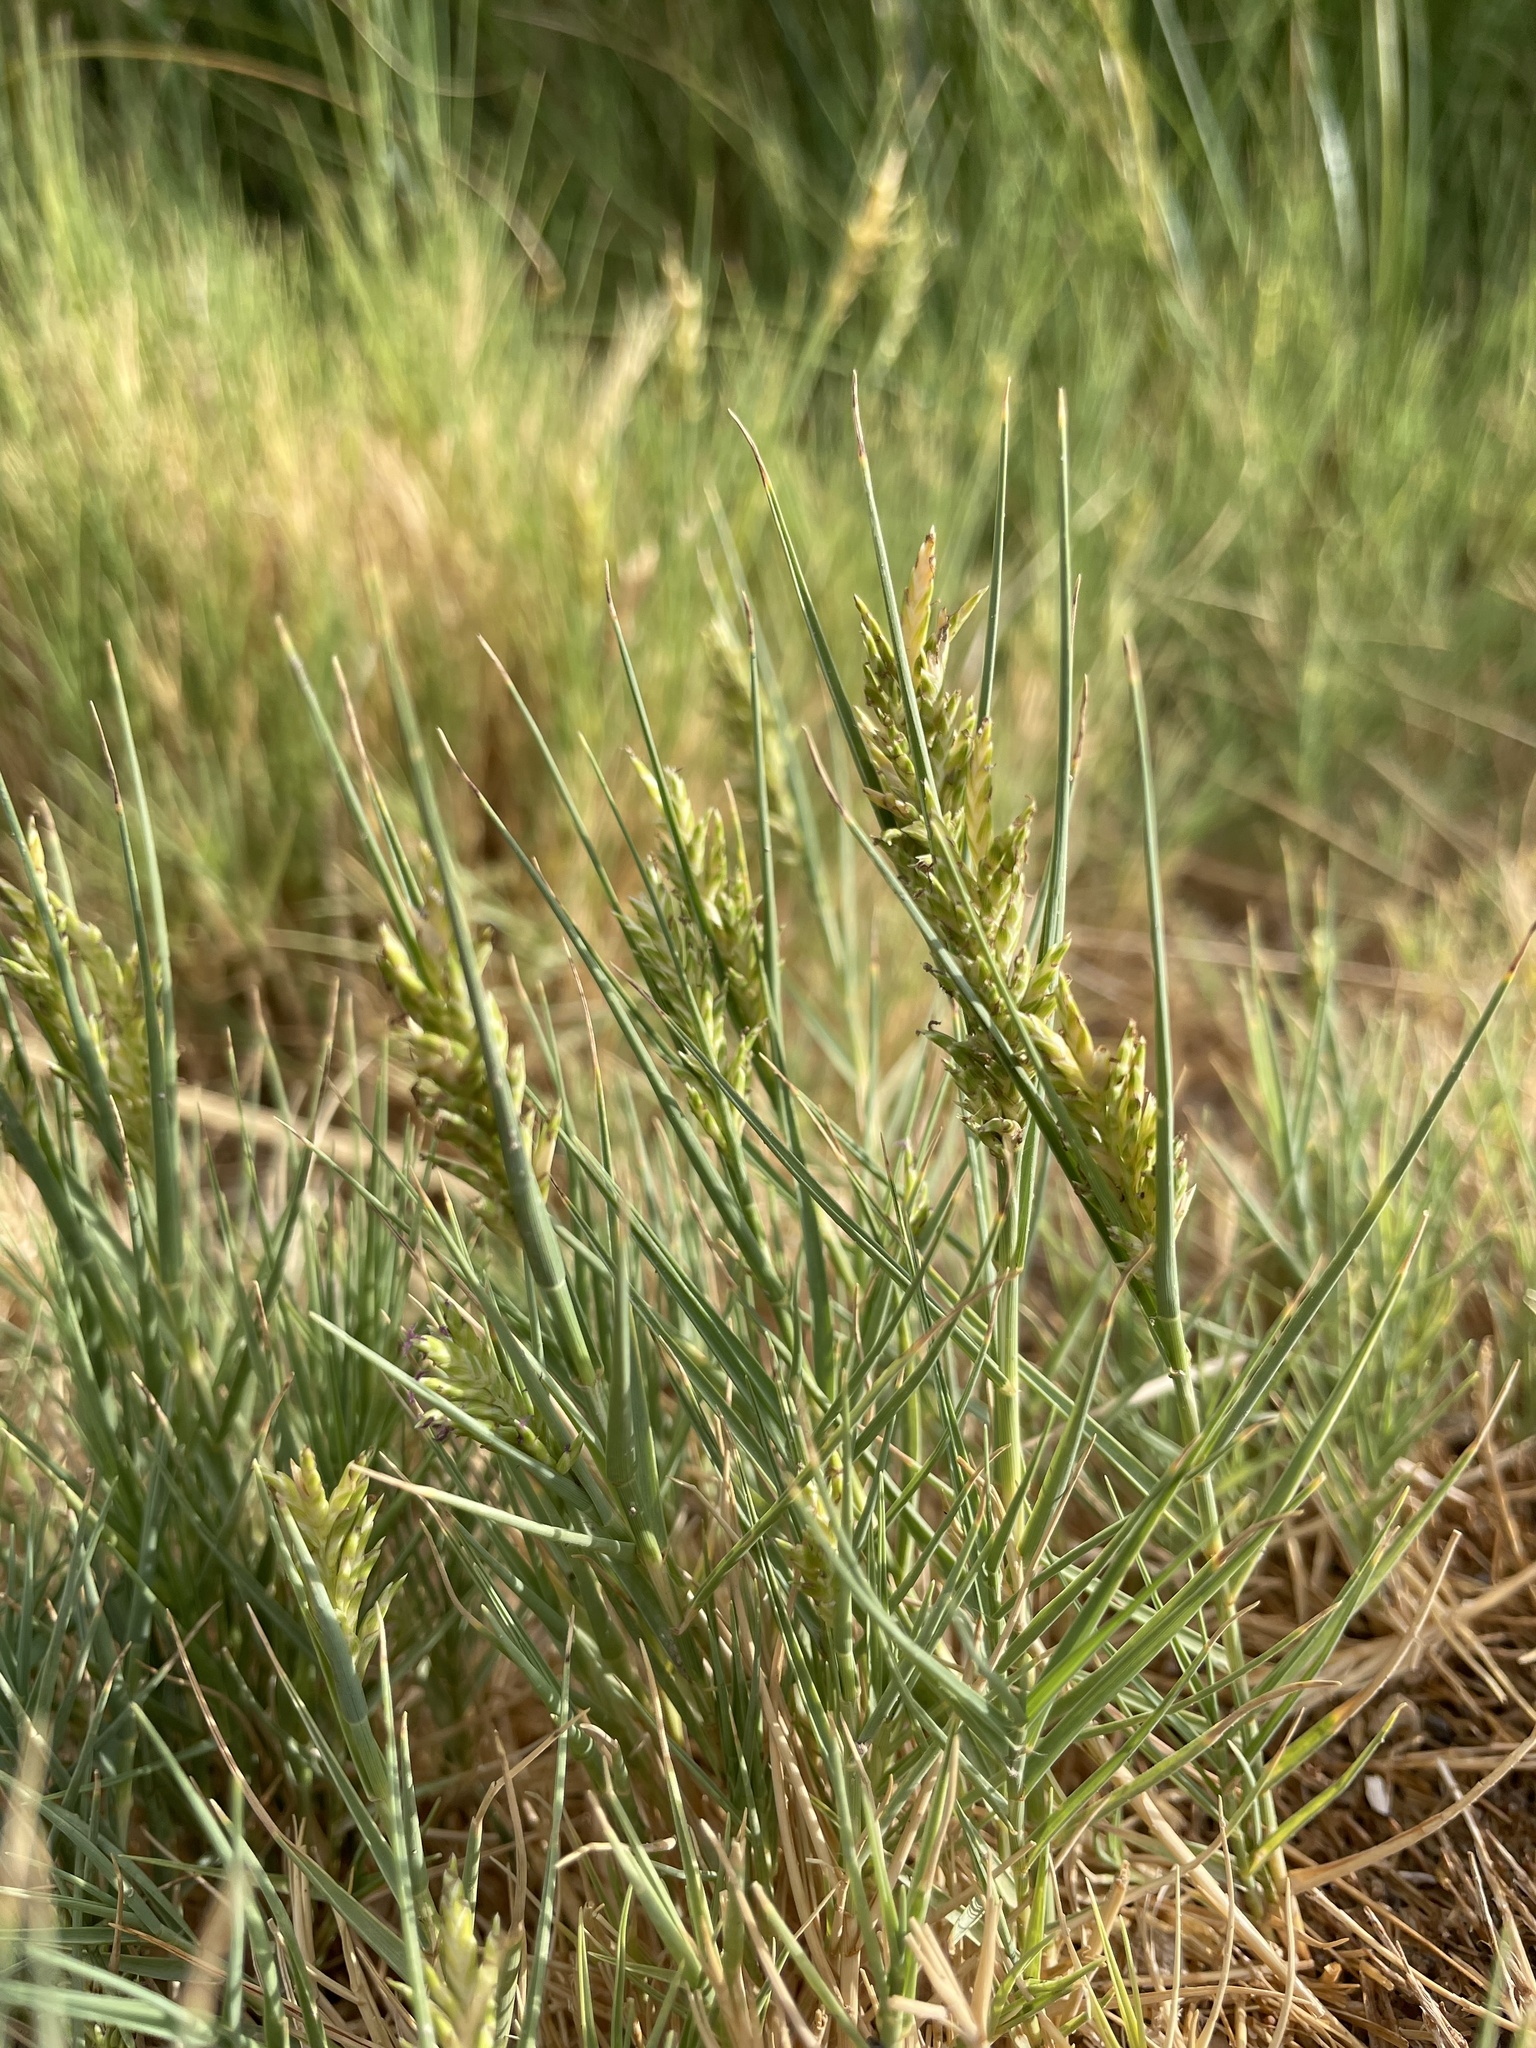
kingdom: Plantae
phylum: Tracheophyta
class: Liliopsida
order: Poales
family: Poaceae
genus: Distichlis
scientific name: Distichlis spicata
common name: Saltgrass
